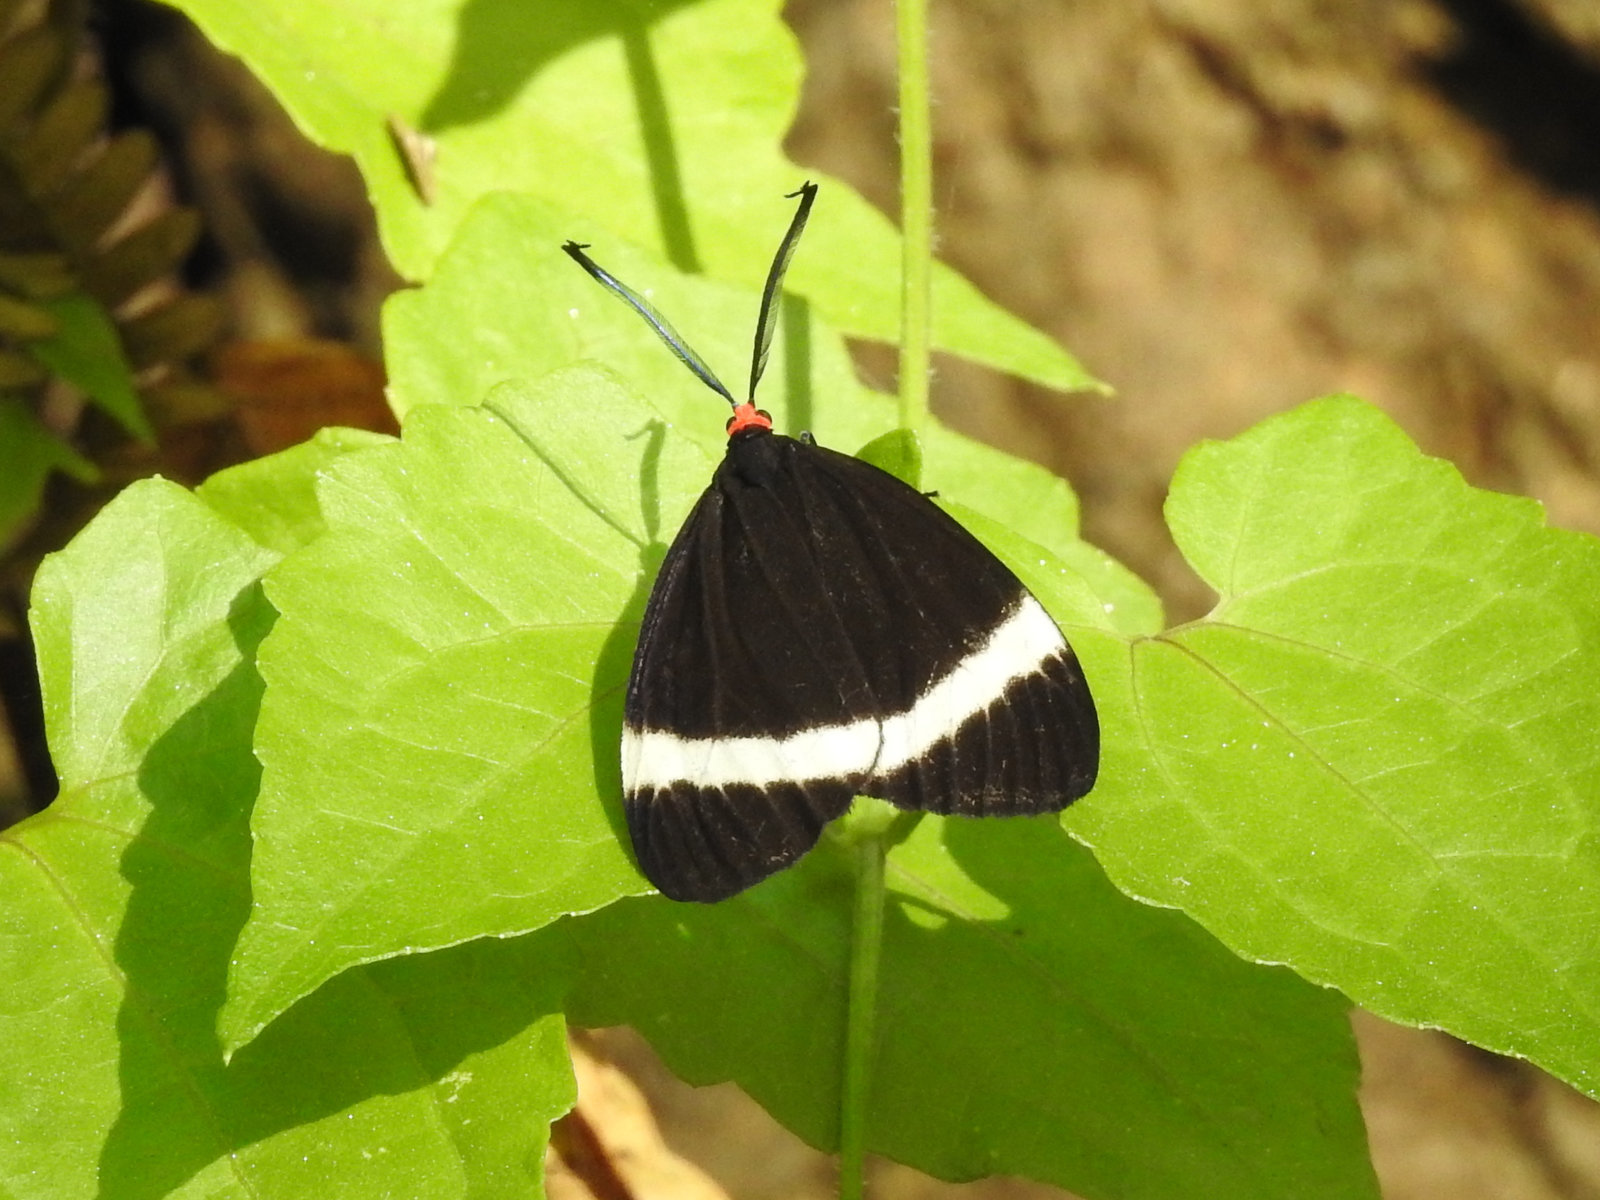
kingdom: Animalia
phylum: Arthropoda
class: Insecta
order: Lepidoptera
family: Zygaenidae
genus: Pidorus
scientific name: Pidorus glaucopis
